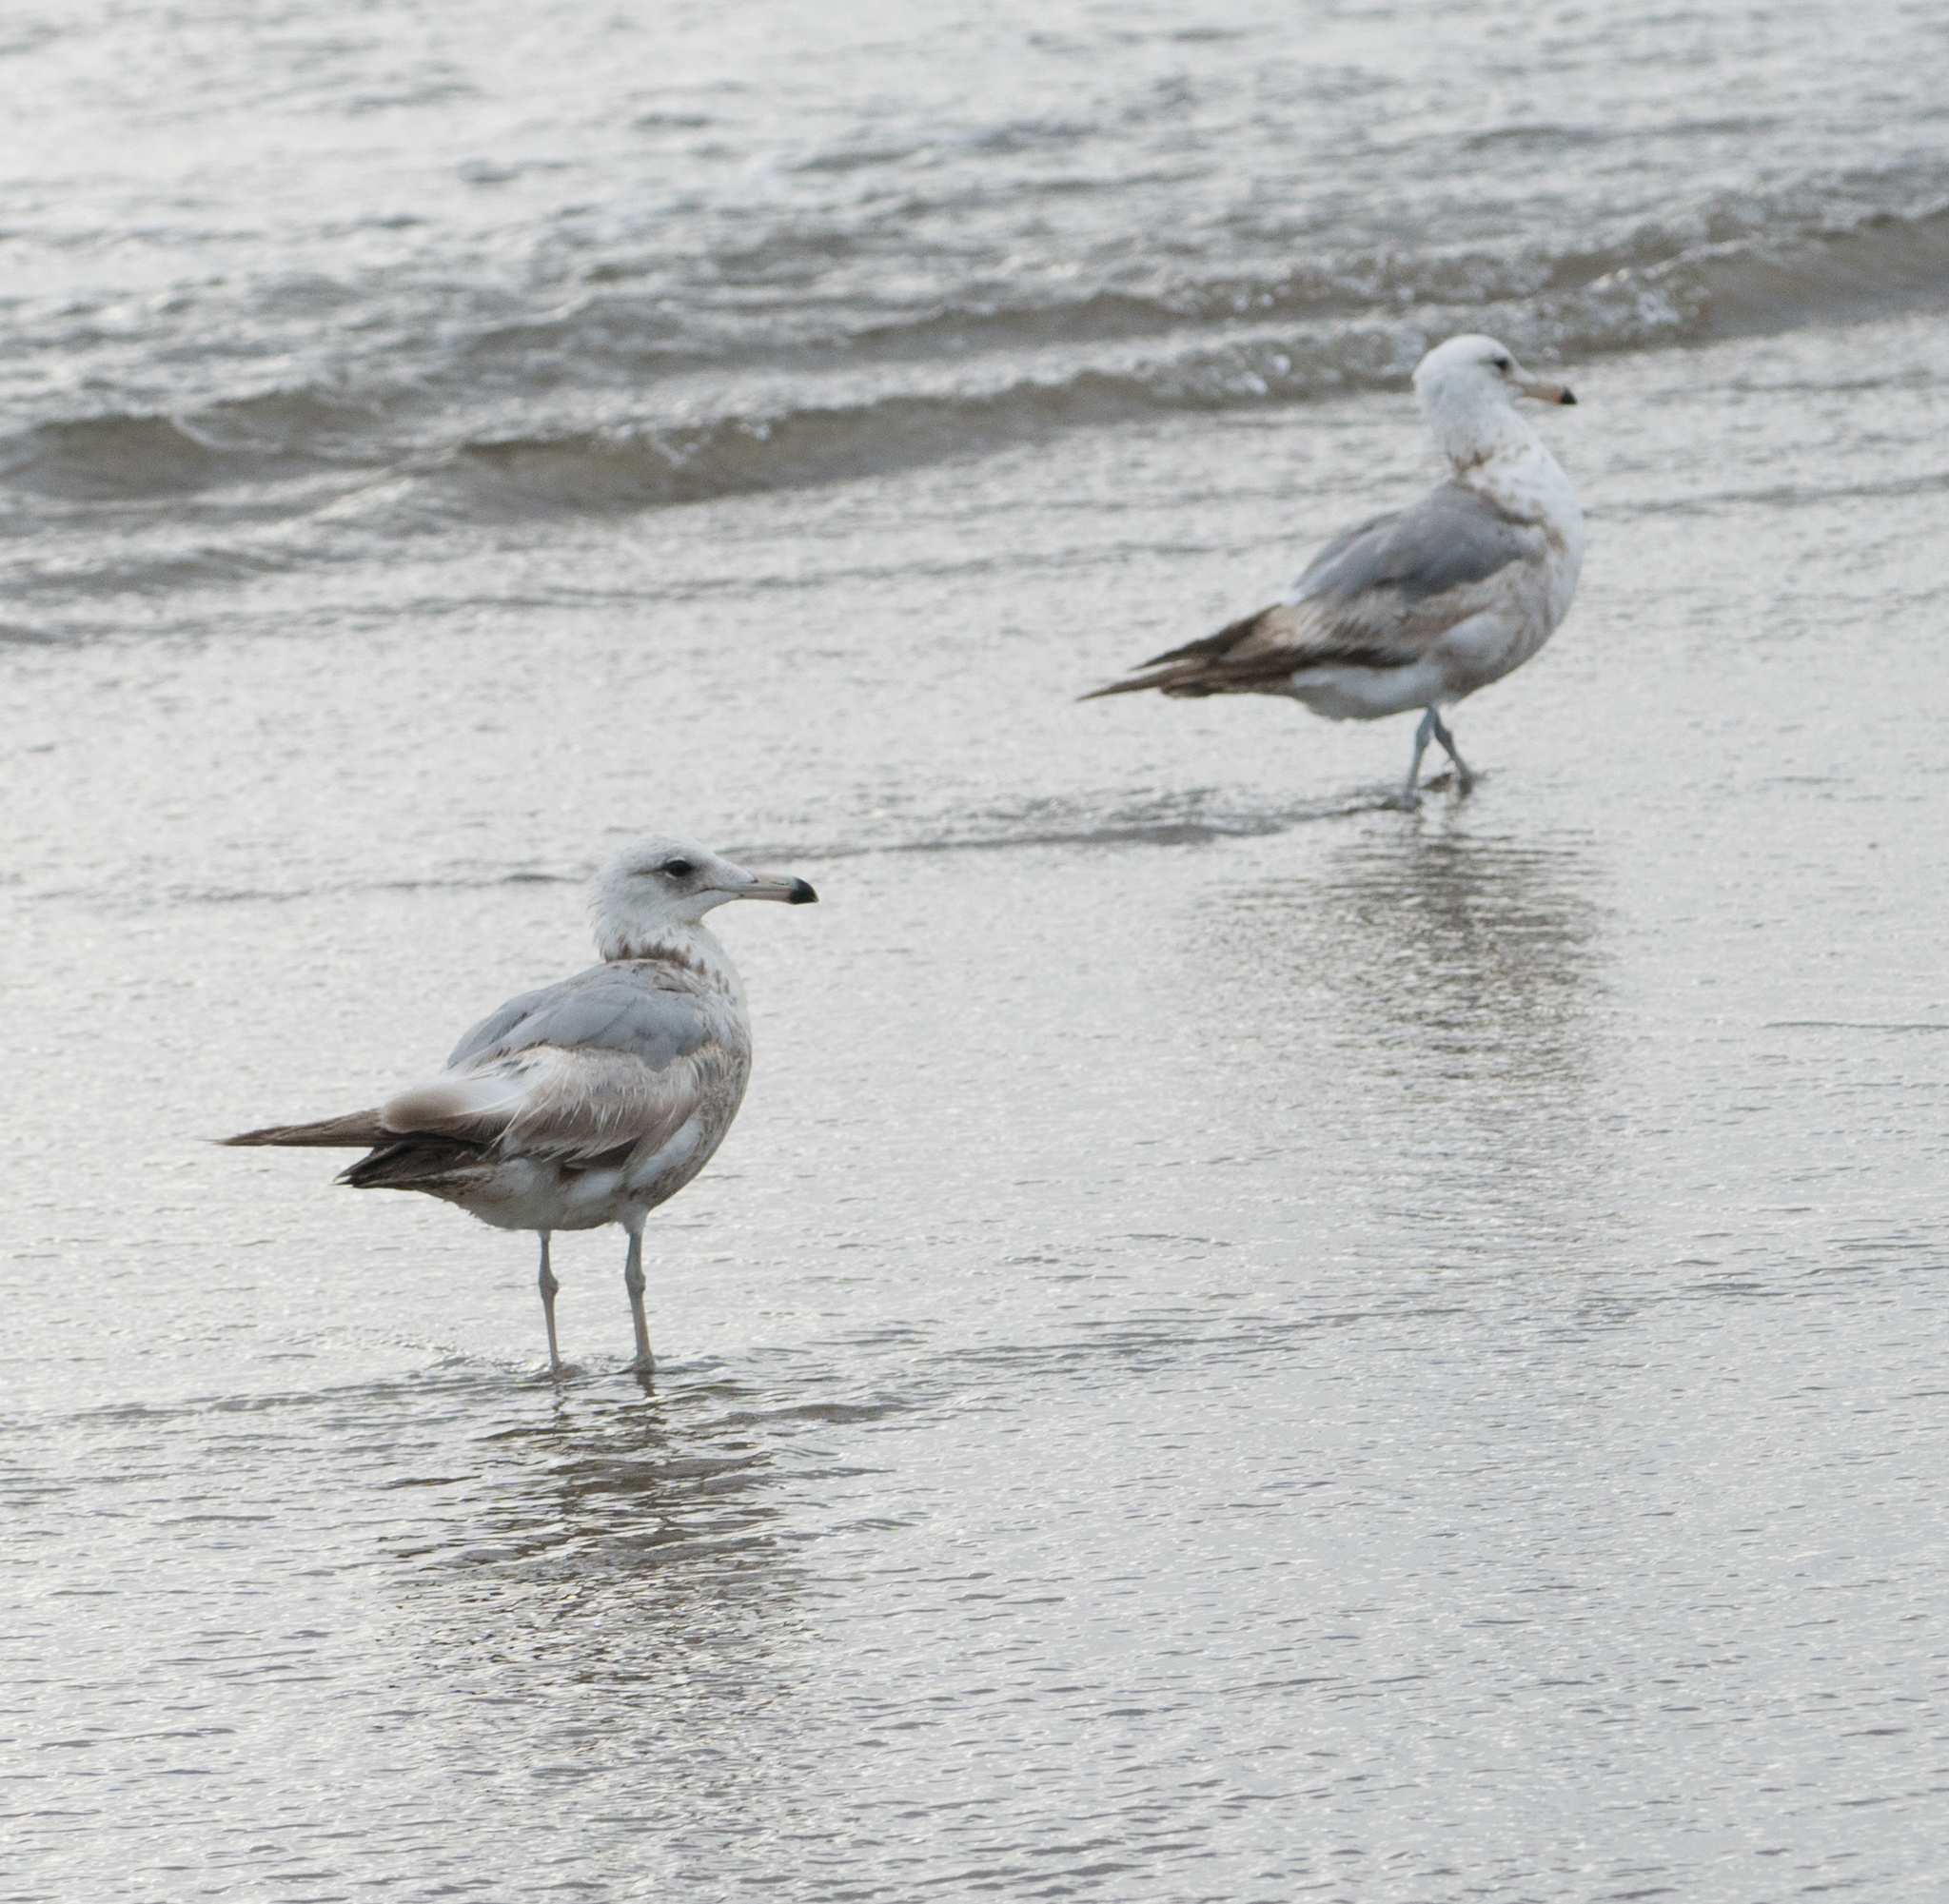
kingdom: Animalia
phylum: Chordata
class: Aves
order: Charadriiformes
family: Laridae
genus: Larus
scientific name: Larus californicus
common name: California gull
